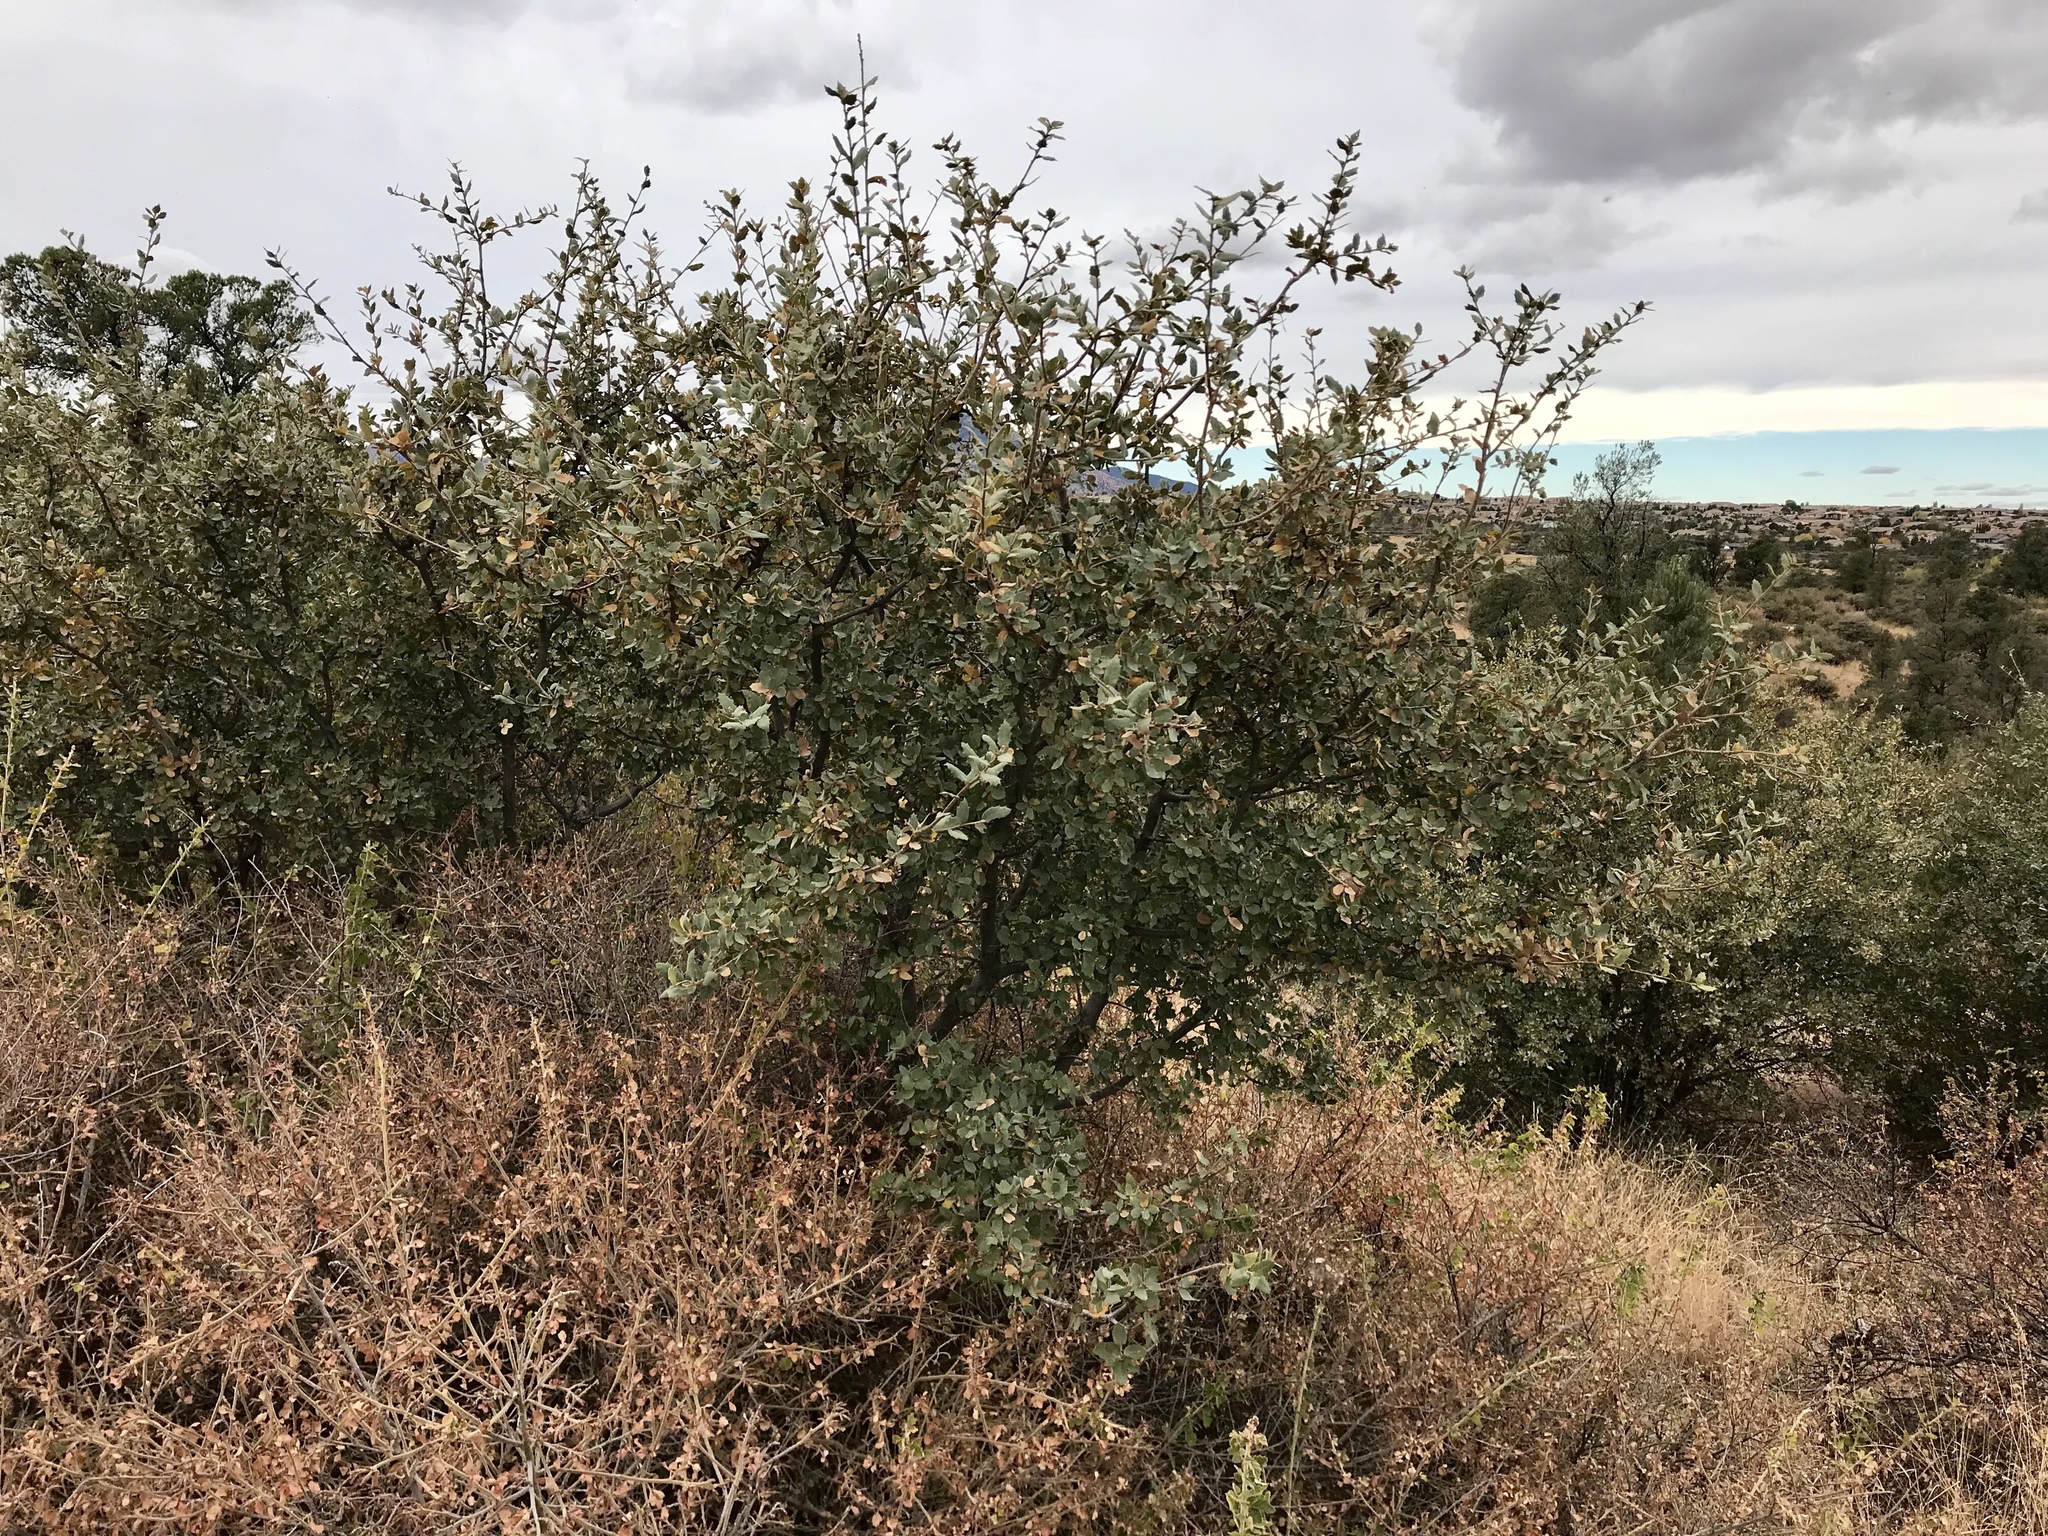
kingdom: Plantae
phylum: Tracheophyta
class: Magnoliopsida
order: Fagales
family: Fagaceae
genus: Quercus
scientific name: Quercus turbinella
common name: Sonoran scrub oak
